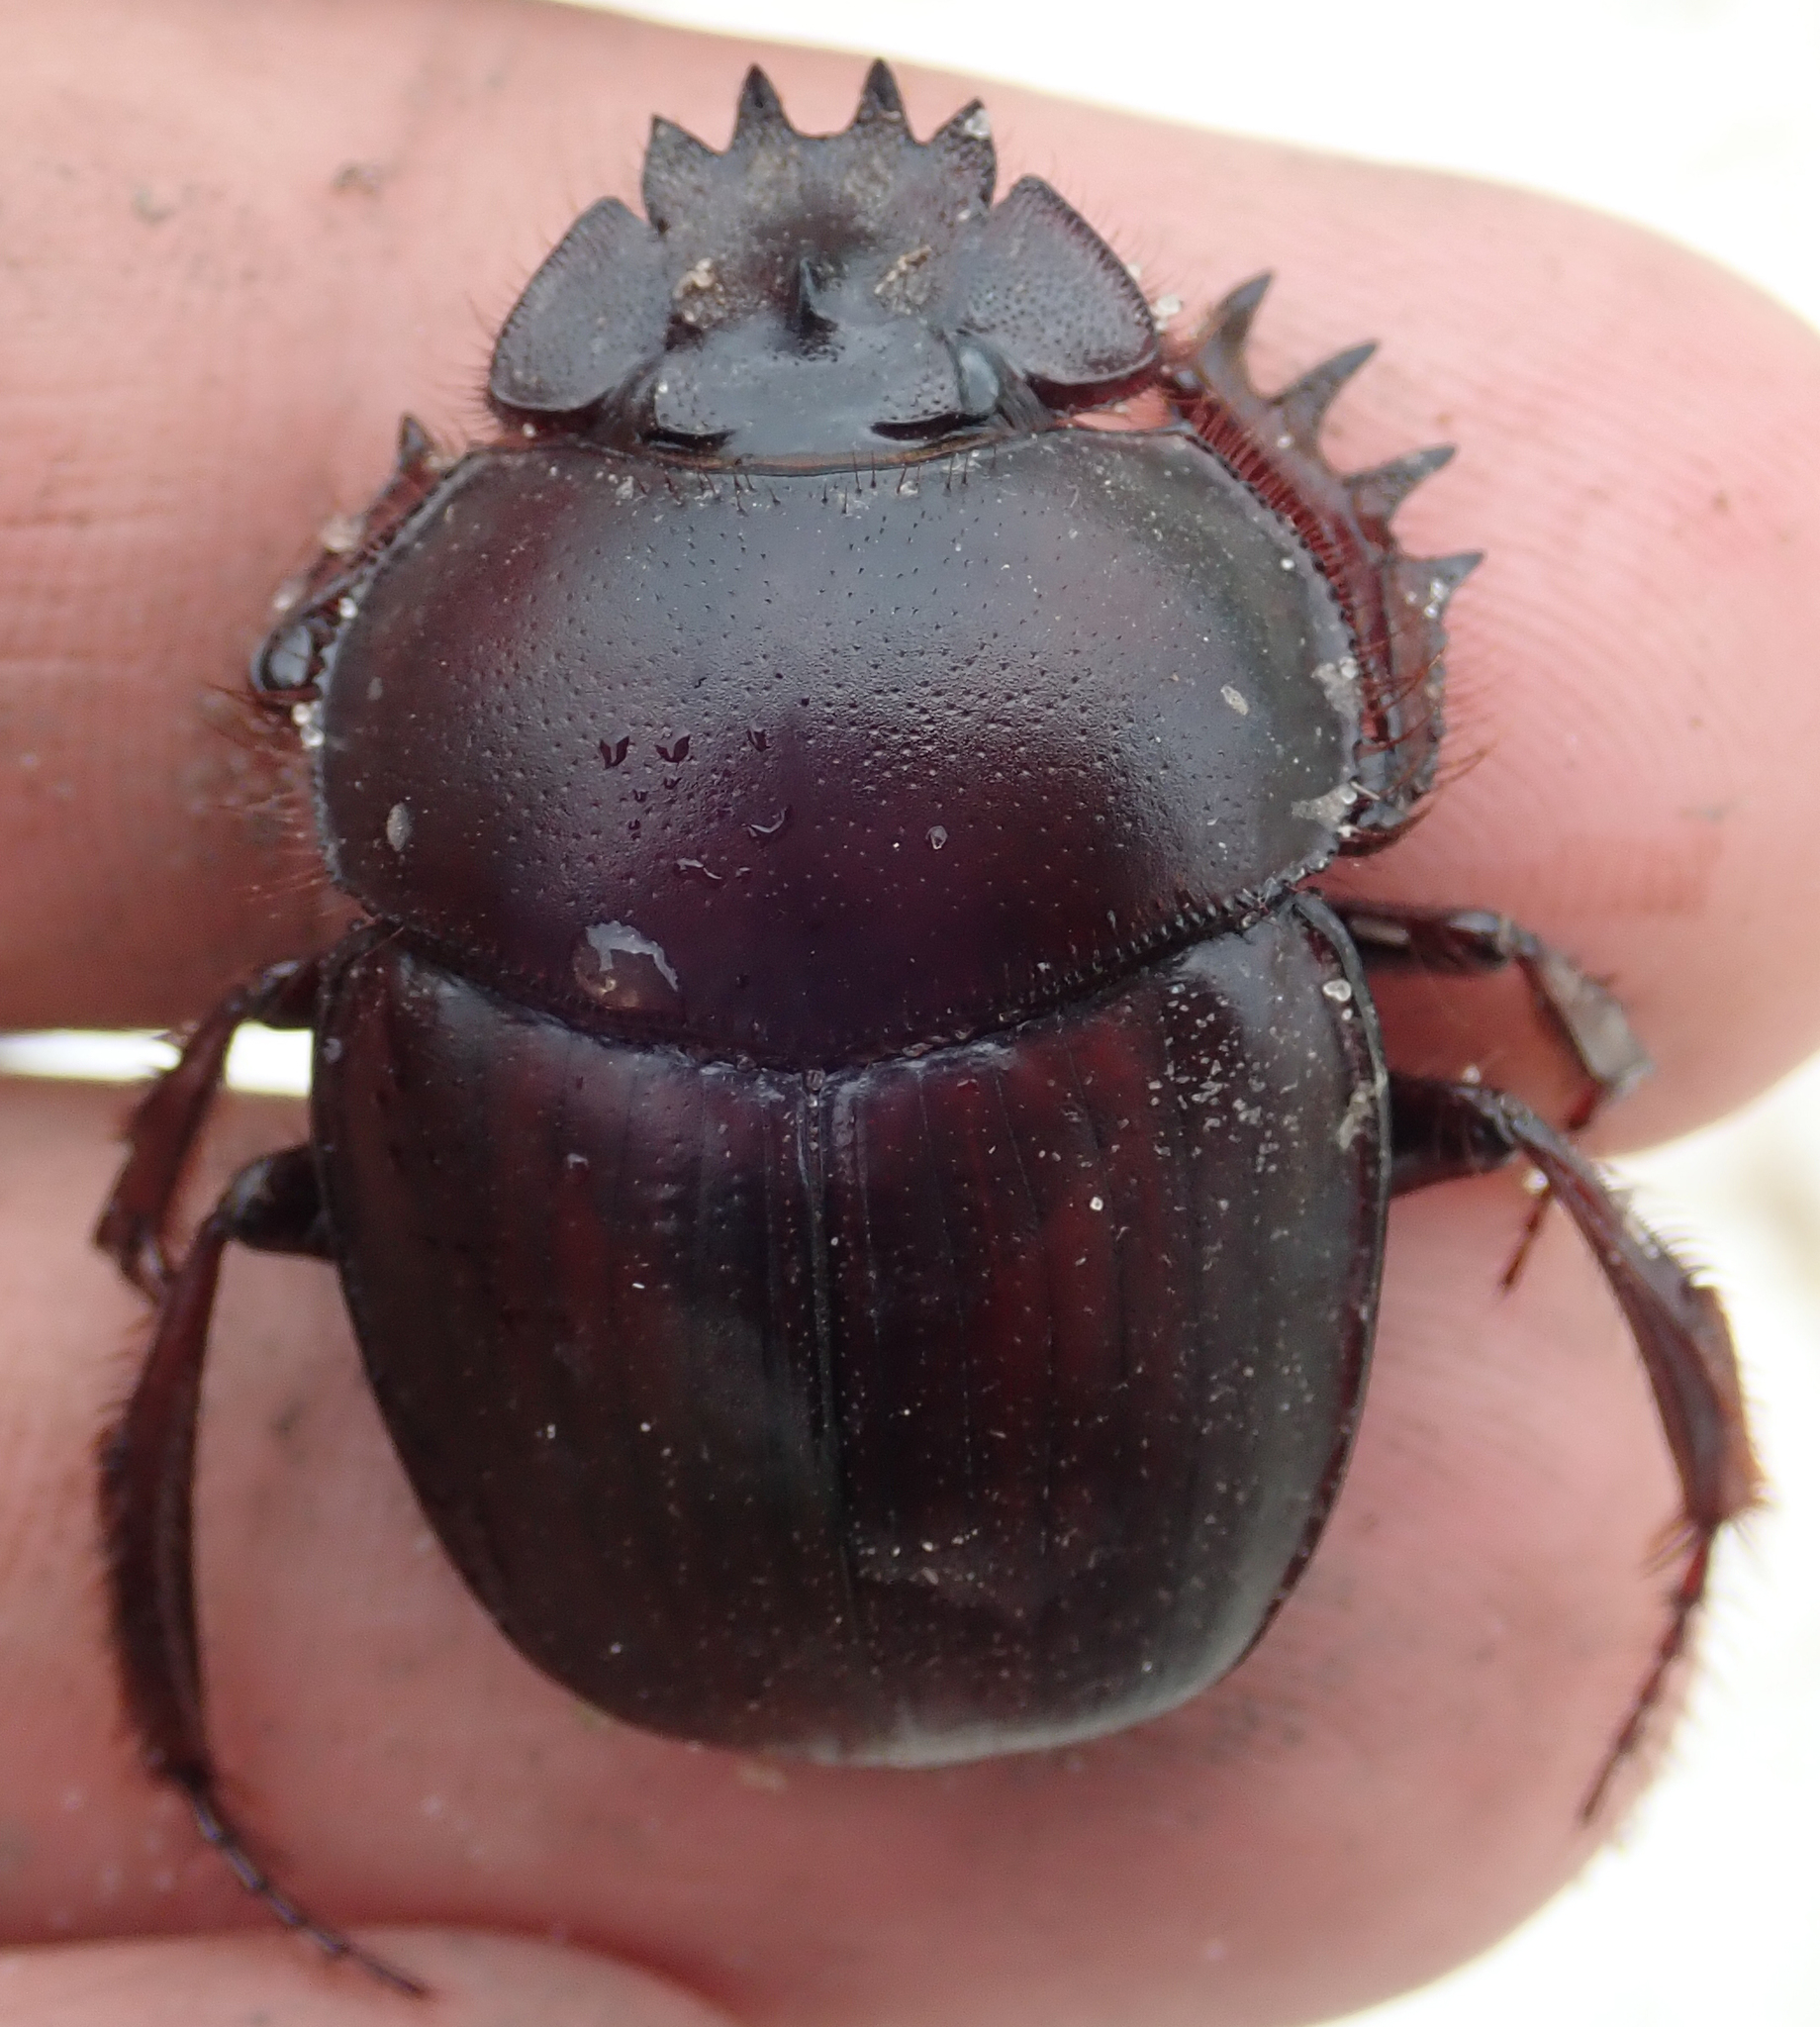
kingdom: Animalia
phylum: Arthropoda
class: Insecta
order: Coleoptera
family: Scarabaeidae
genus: Scarabaeus
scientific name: Scarabaeus zambesianus
